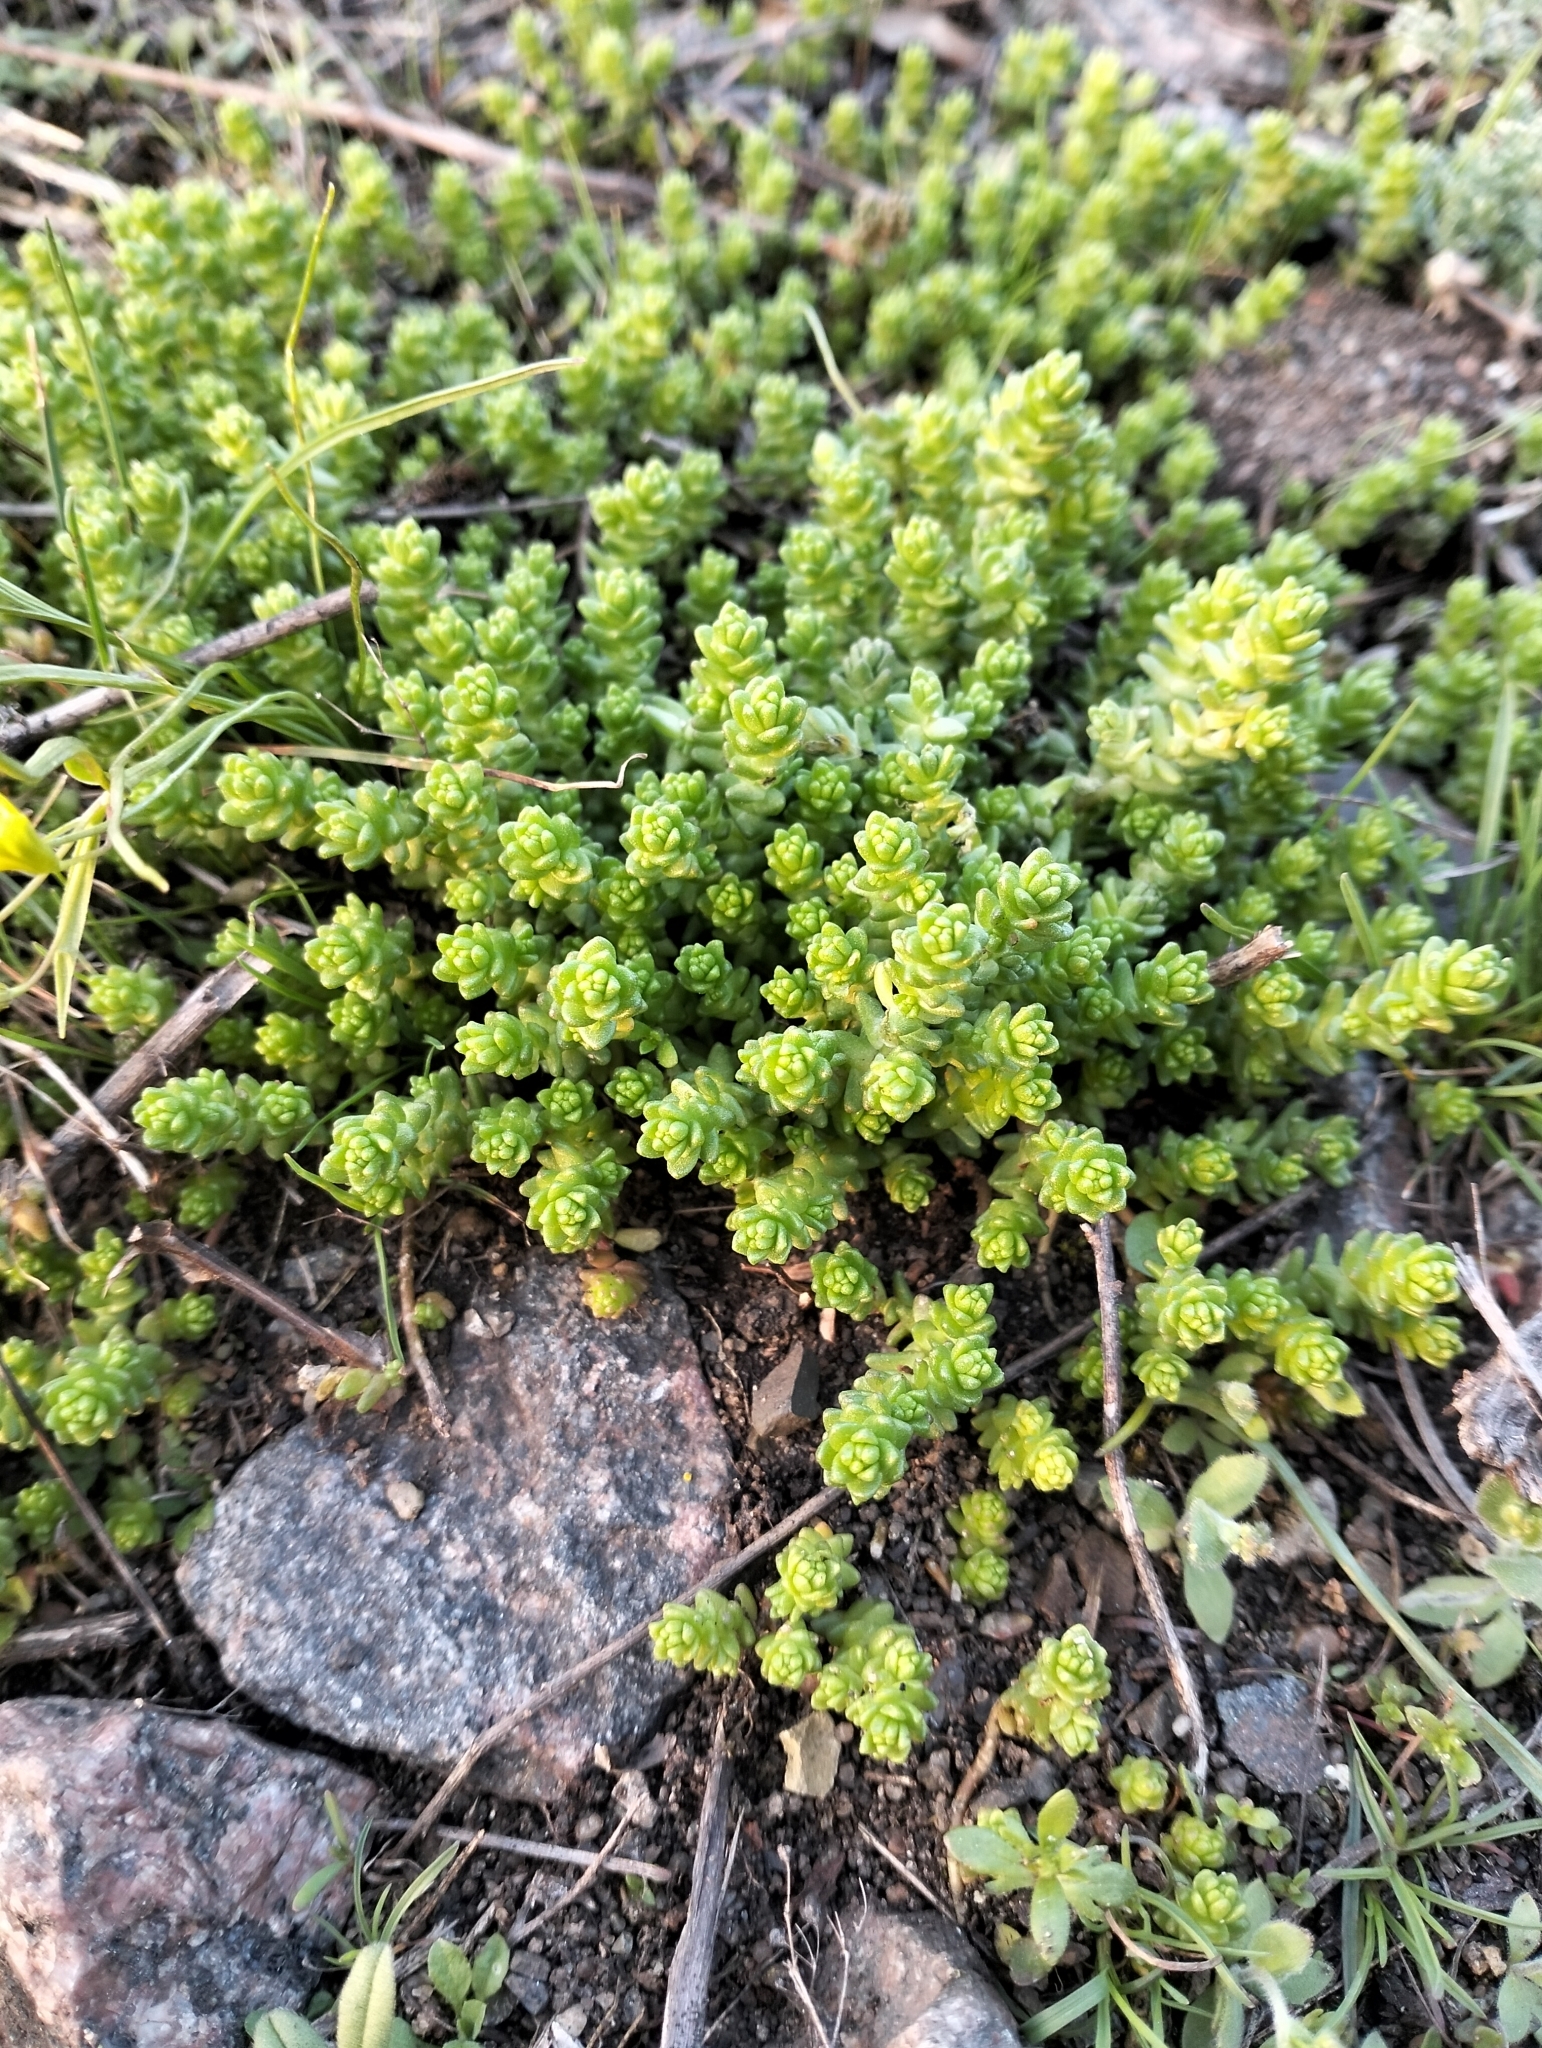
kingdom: Plantae
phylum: Tracheophyta
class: Magnoliopsida
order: Saxifragales
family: Crassulaceae
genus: Sedum
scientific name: Sedum acre
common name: Biting stonecrop
